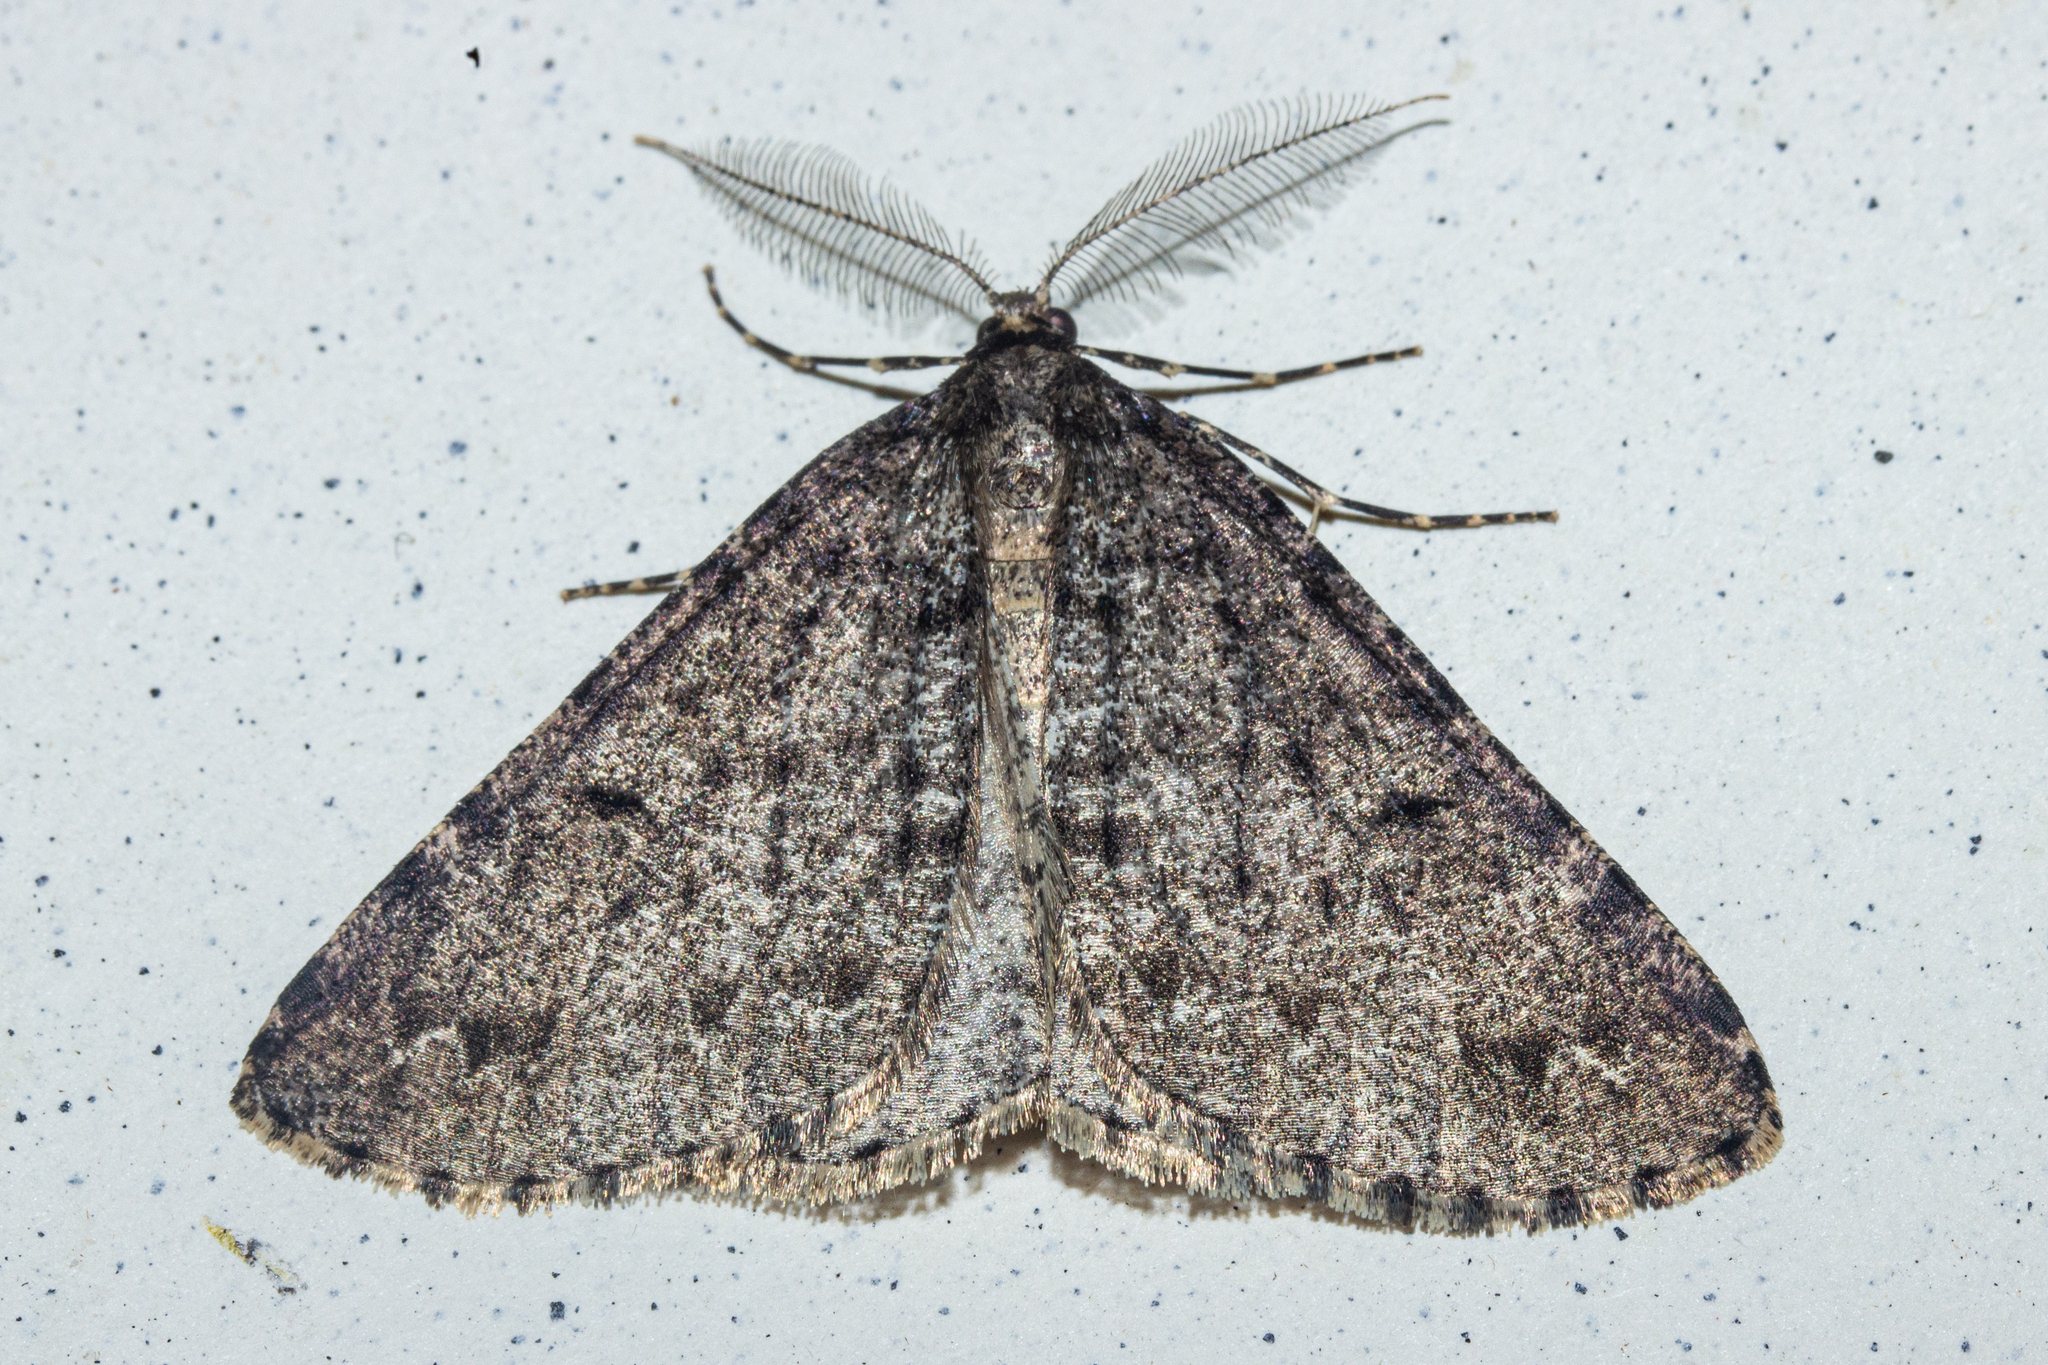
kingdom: Animalia
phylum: Arthropoda
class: Insecta
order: Lepidoptera
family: Geometridae
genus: Pseudocoremia
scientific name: Pseudocoremia terrena
